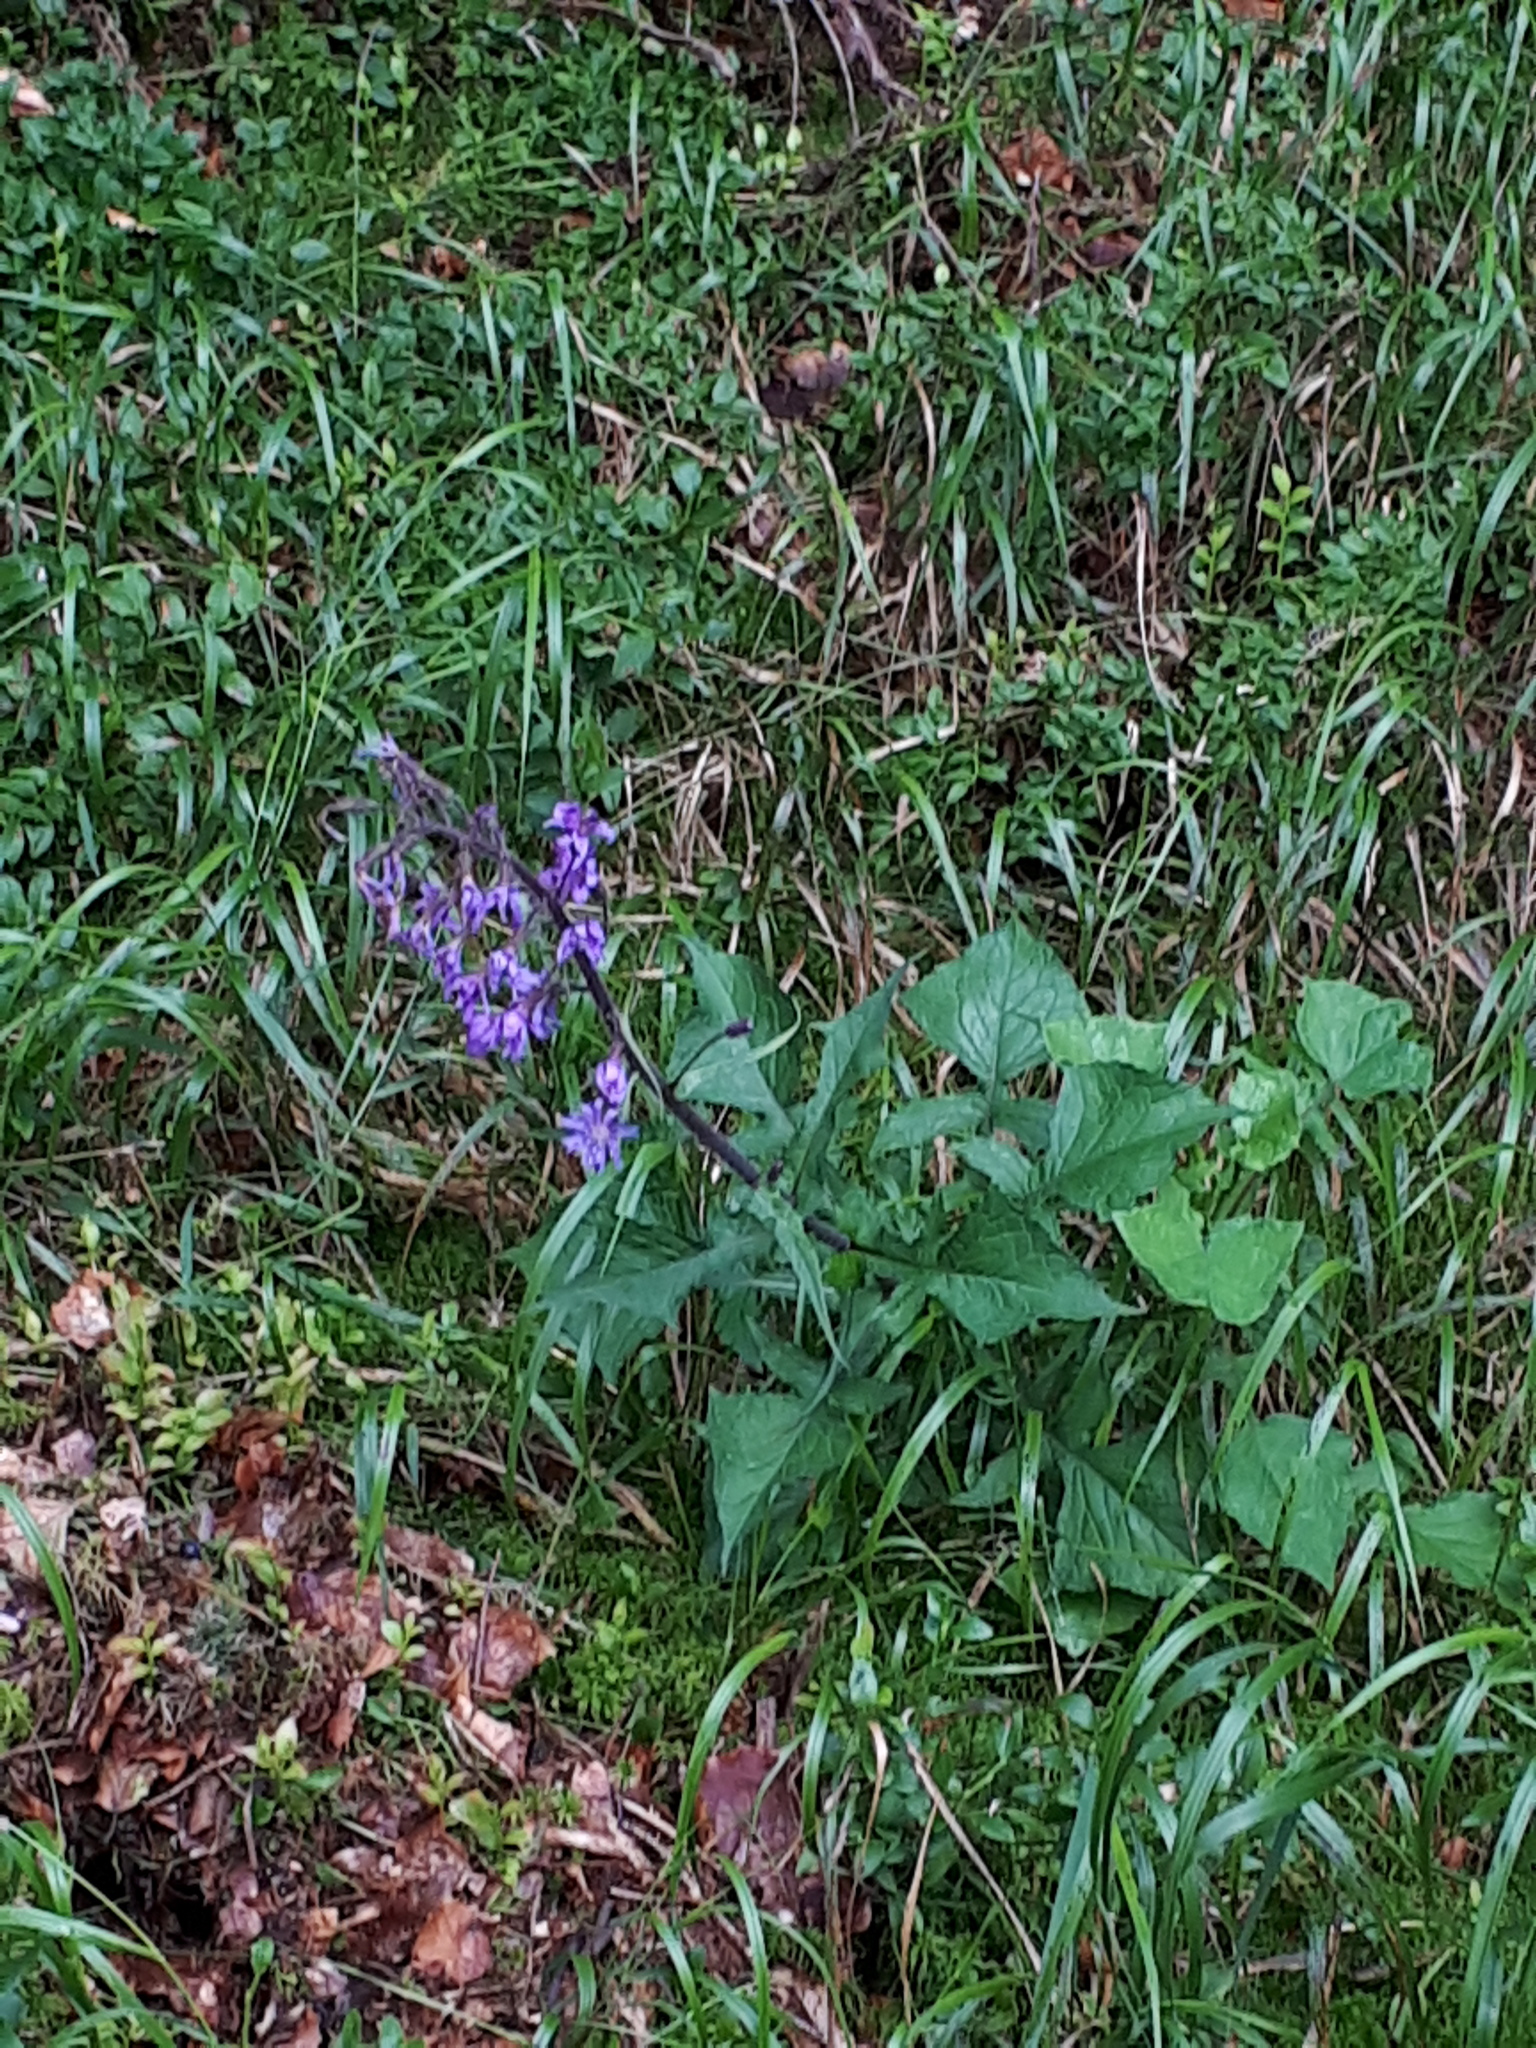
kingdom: Plantae
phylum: Tracheophyta
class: Magnoliopsida
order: Asterales
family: Asteraceae
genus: Cicerbita
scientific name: Cicerbita alpina
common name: Alpine blue-sow-thistle
